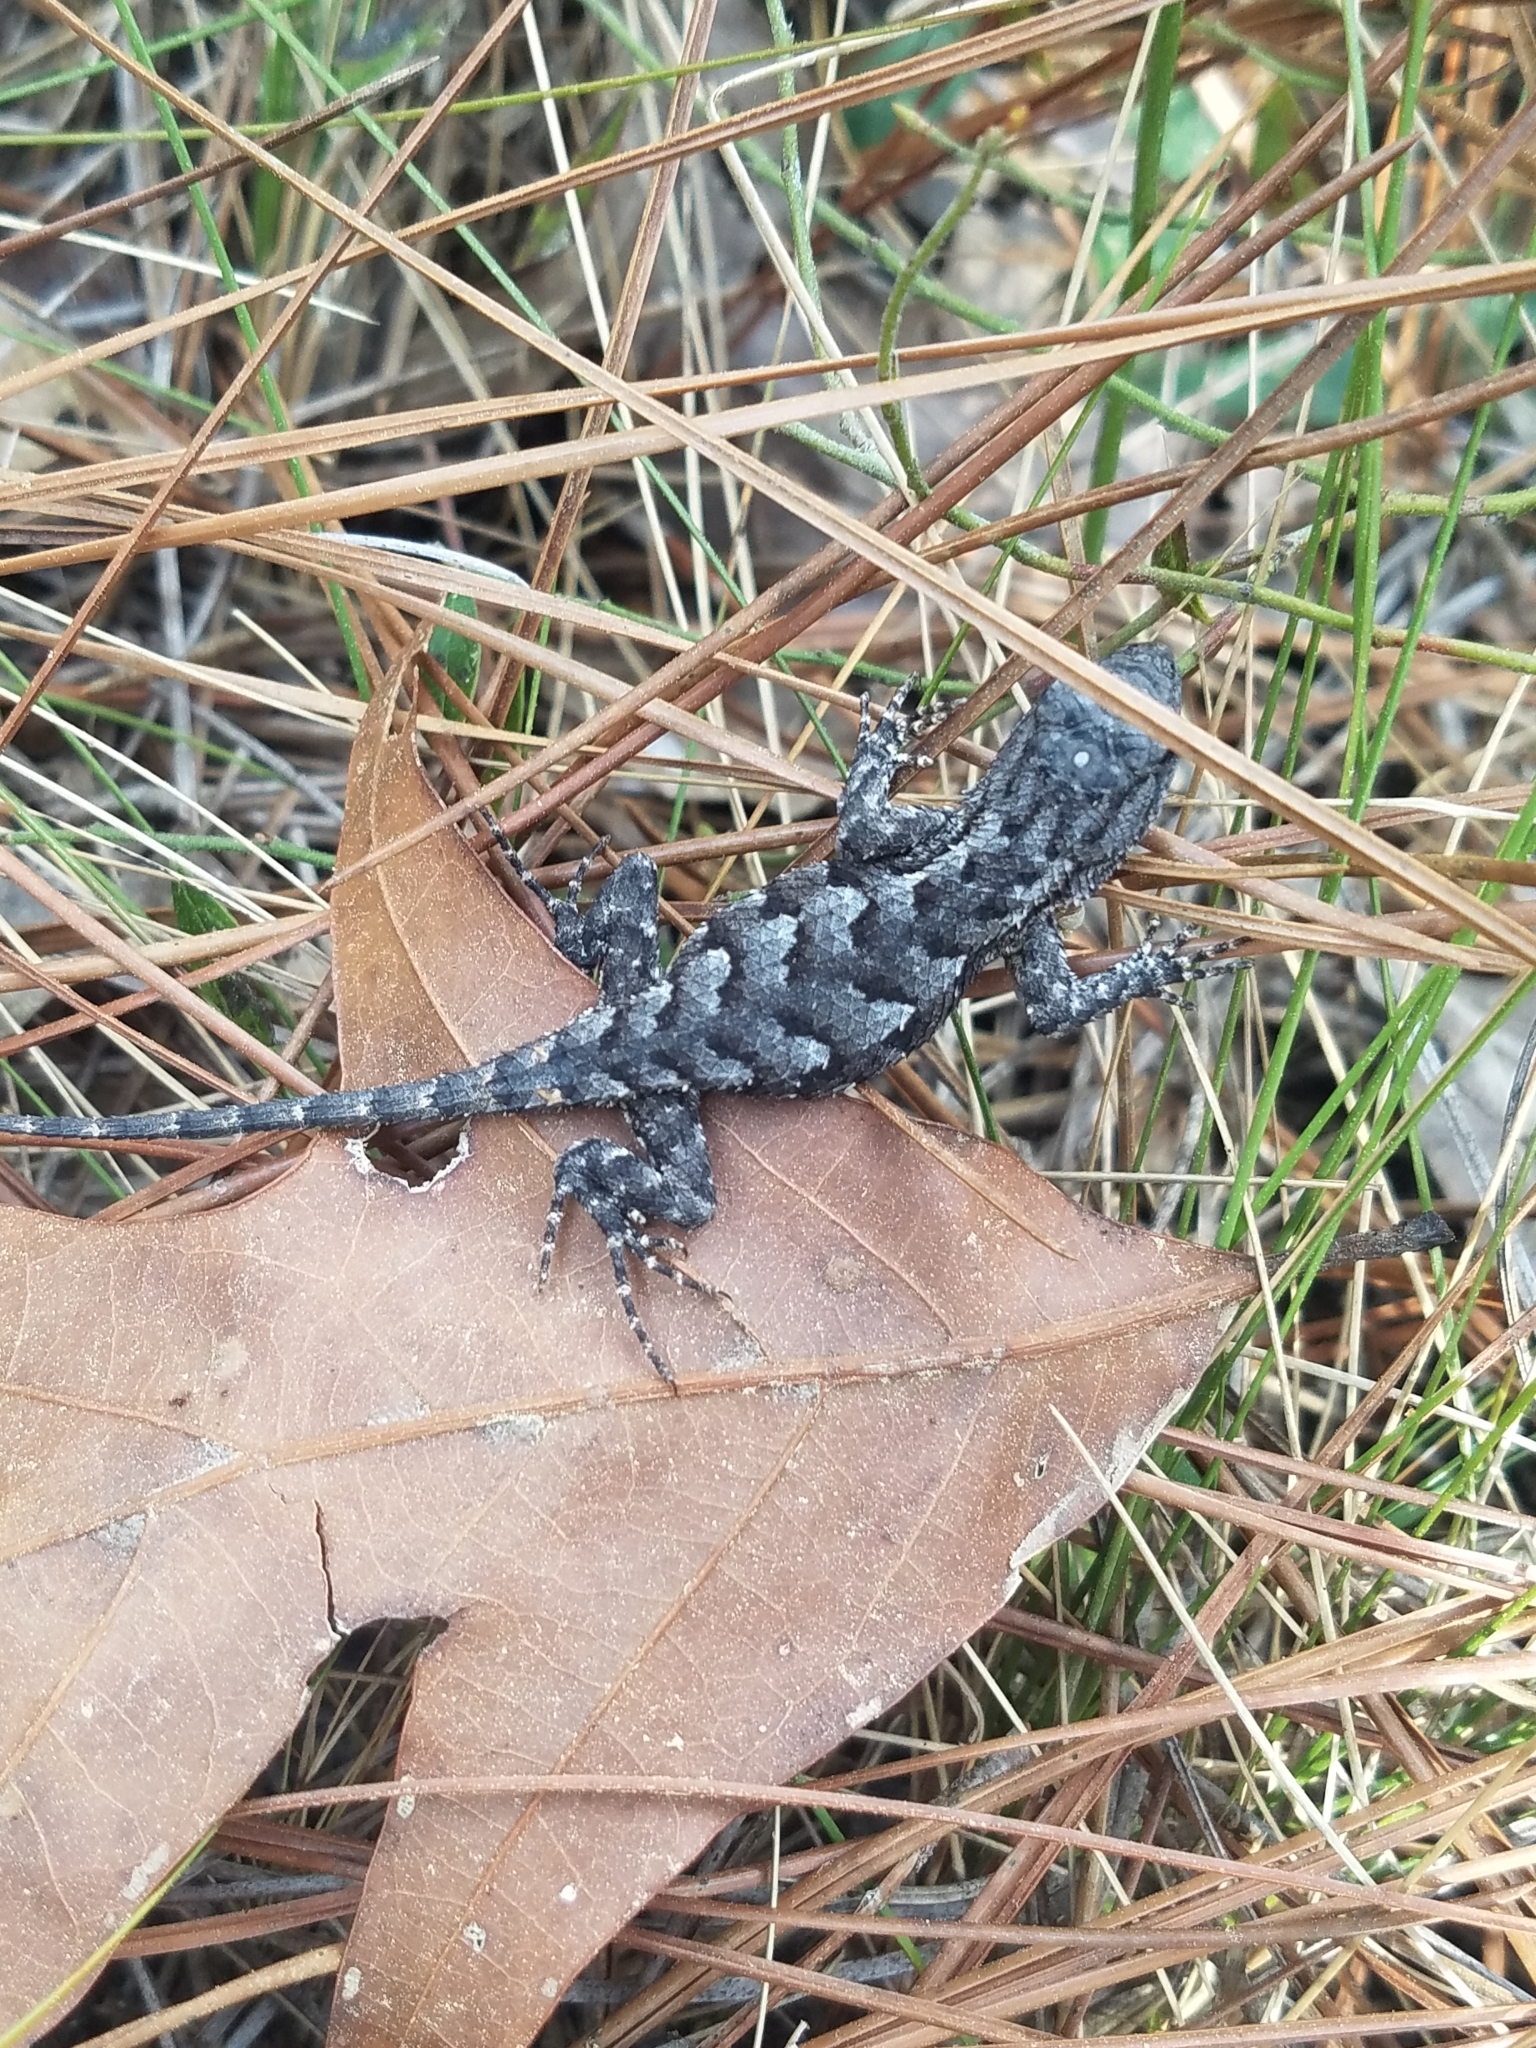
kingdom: Animalia
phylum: Chordata
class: Squamata
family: Phrynosomatidae
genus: Sceloporus
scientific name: Sceloporus undulatus
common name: Eastern fence lizard
